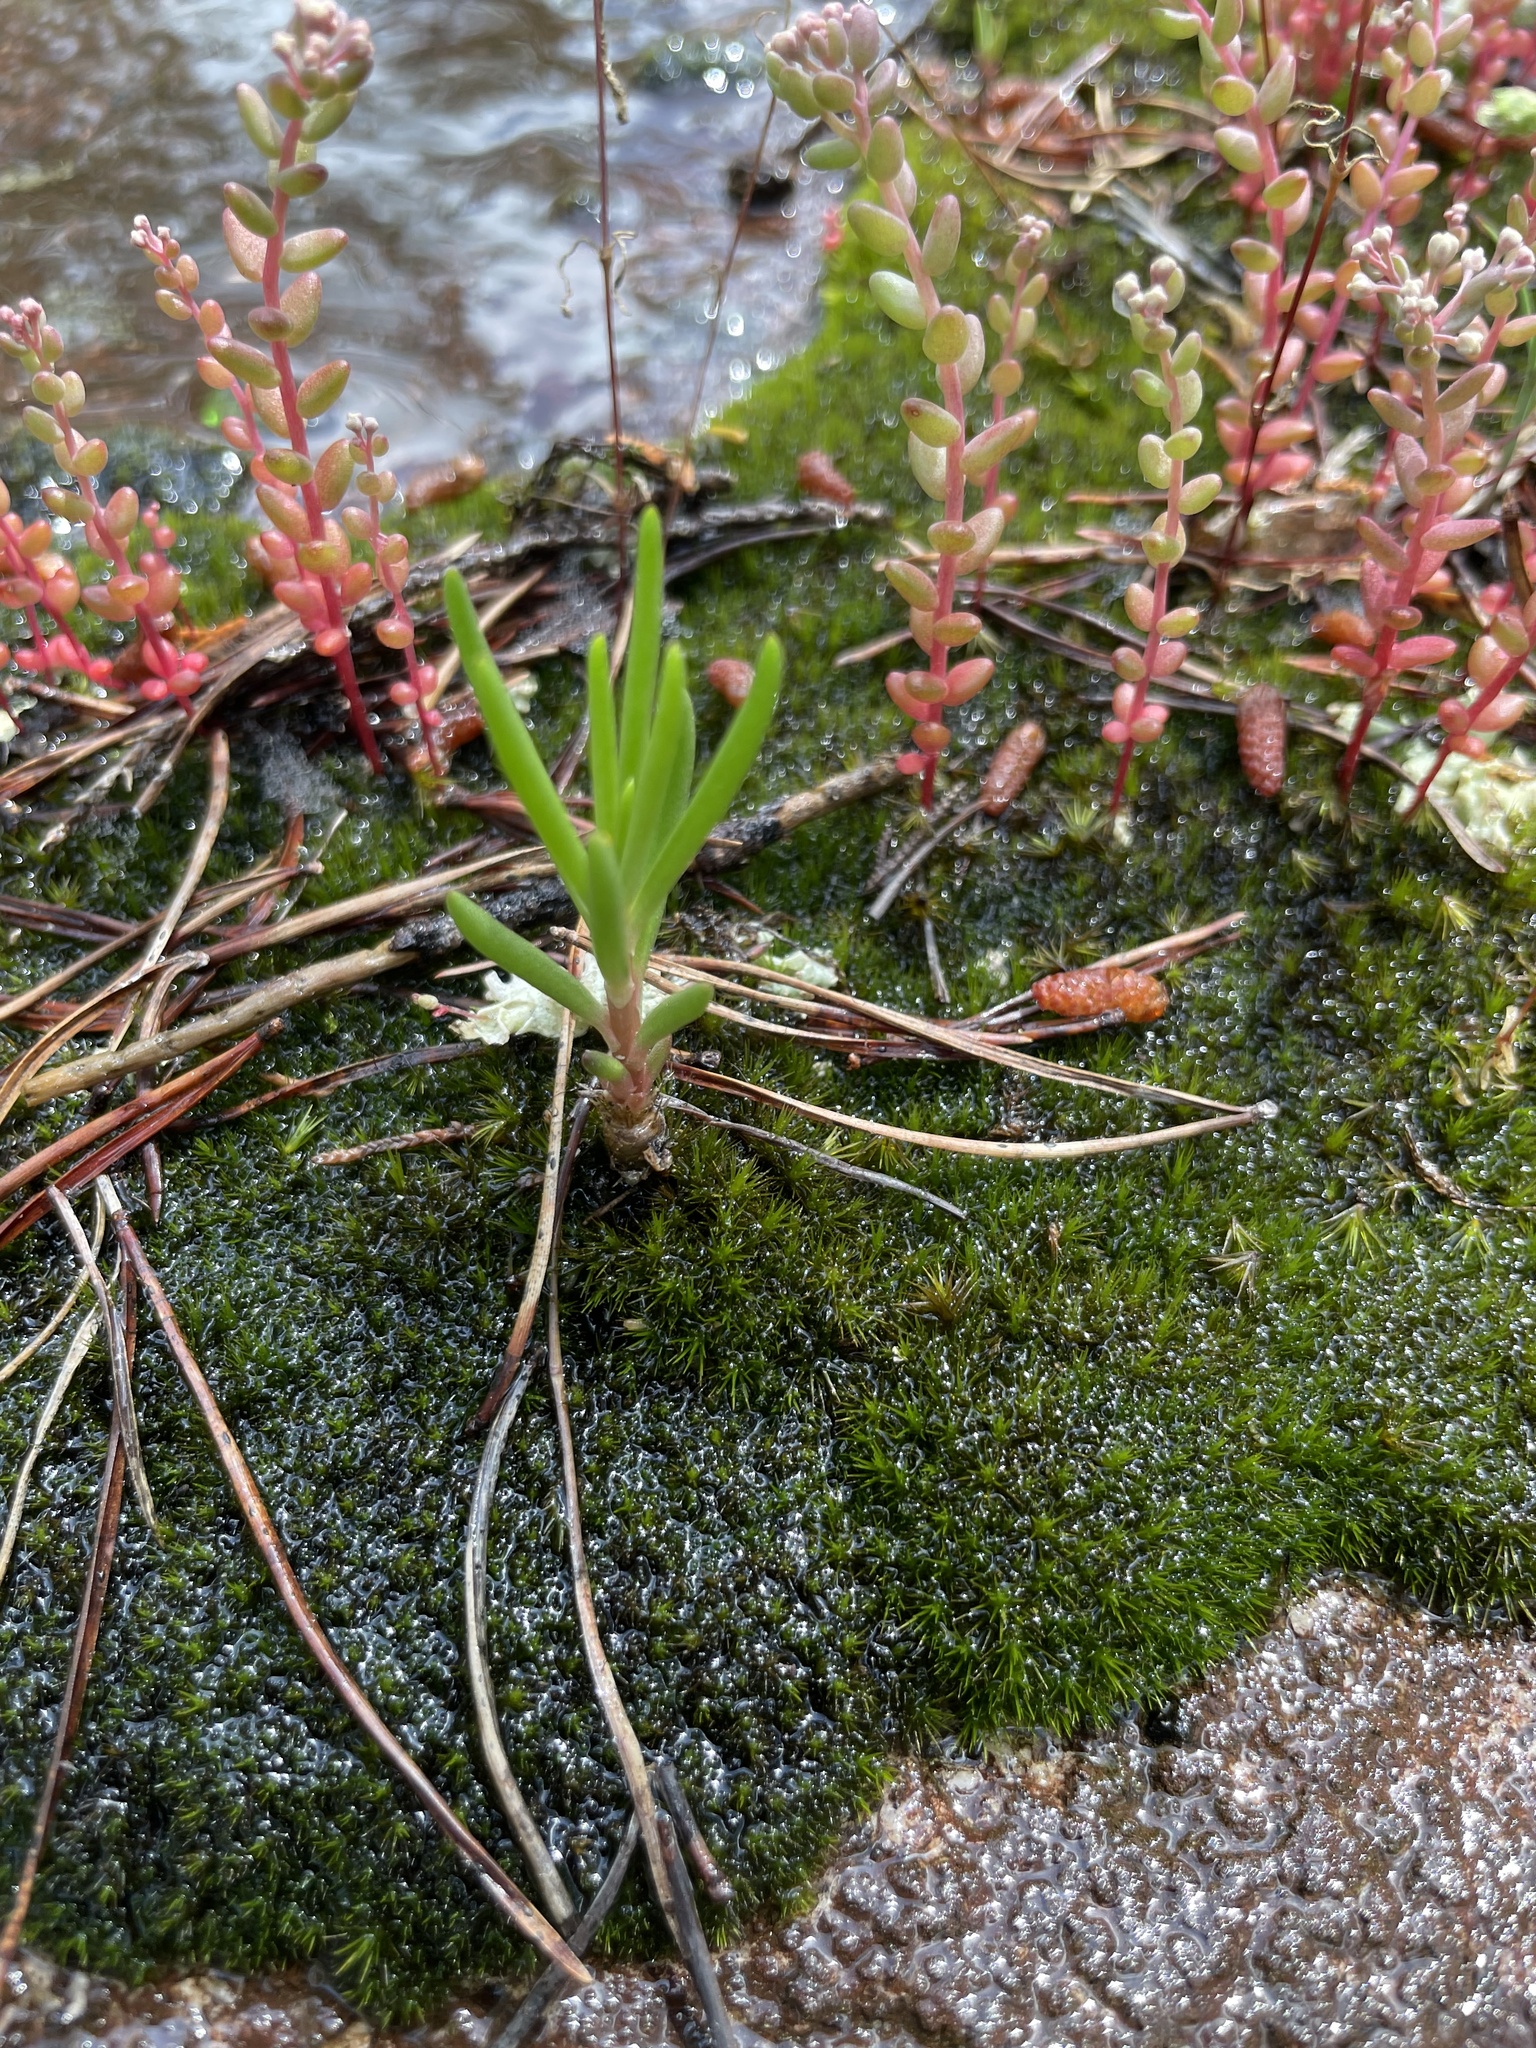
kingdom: Plantae
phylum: Tracheophyta
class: Magnoliopsida
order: Caryophyllales
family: Montiaceae
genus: Phemeranthus
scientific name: Phemeranthus teretifolius
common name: Quill fameflower
